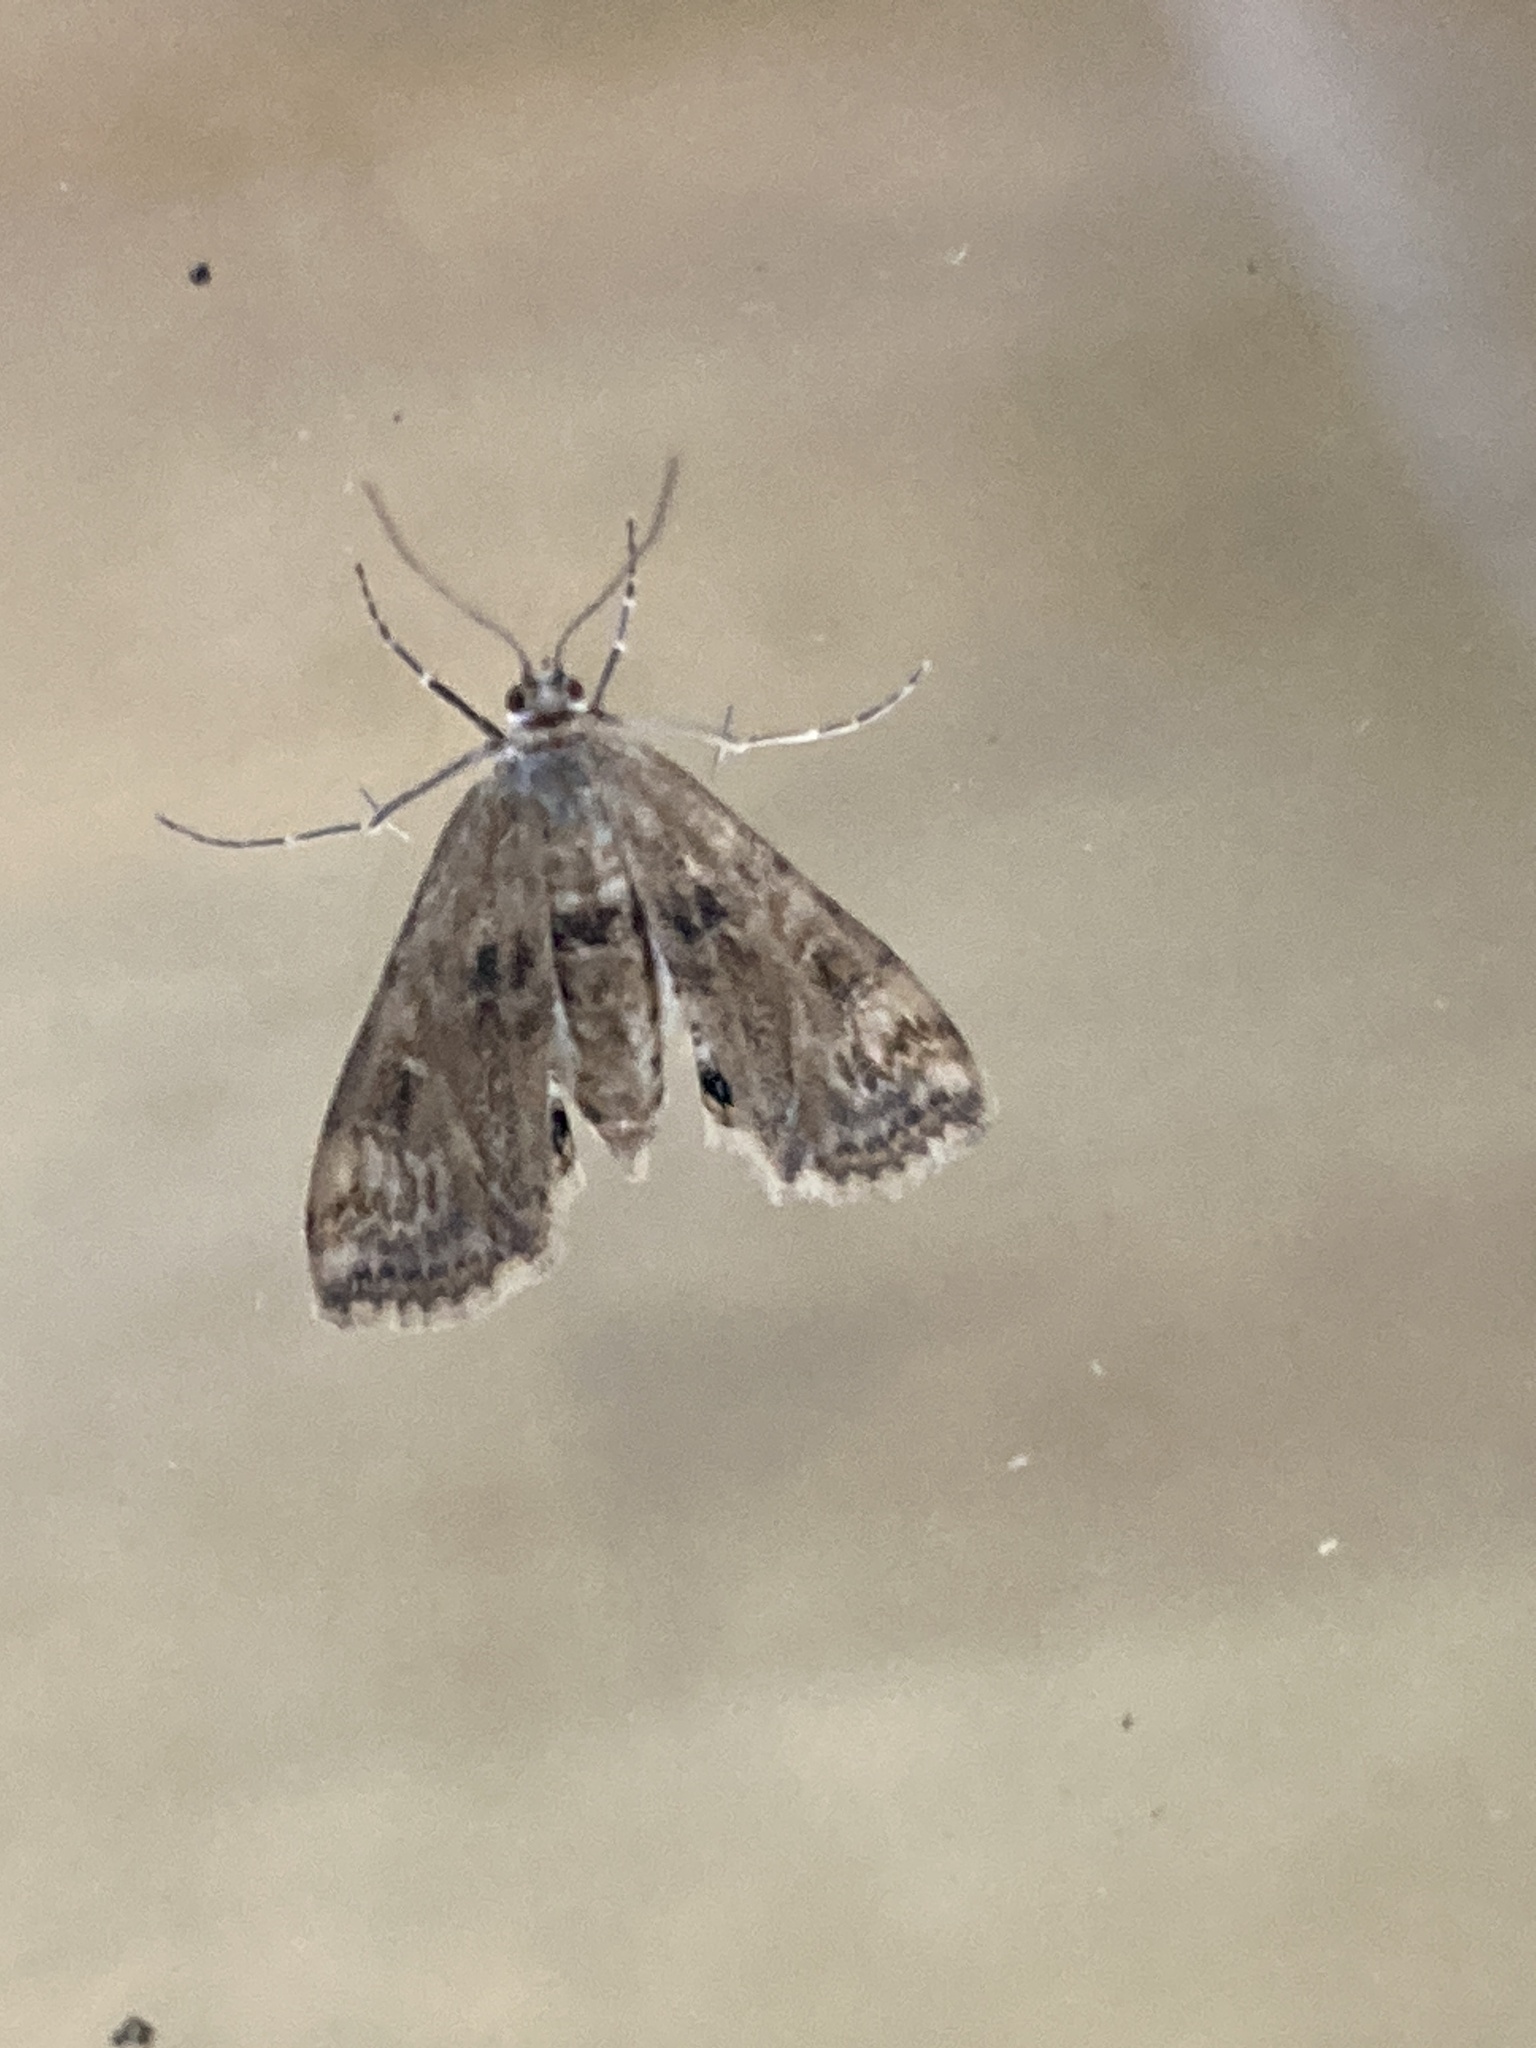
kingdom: Animalia
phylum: Arthropoda
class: Insecta
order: Lepidoptera
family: Crambidae
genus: Cataclysta
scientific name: Cataclysta lemnata
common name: Small china-mark
